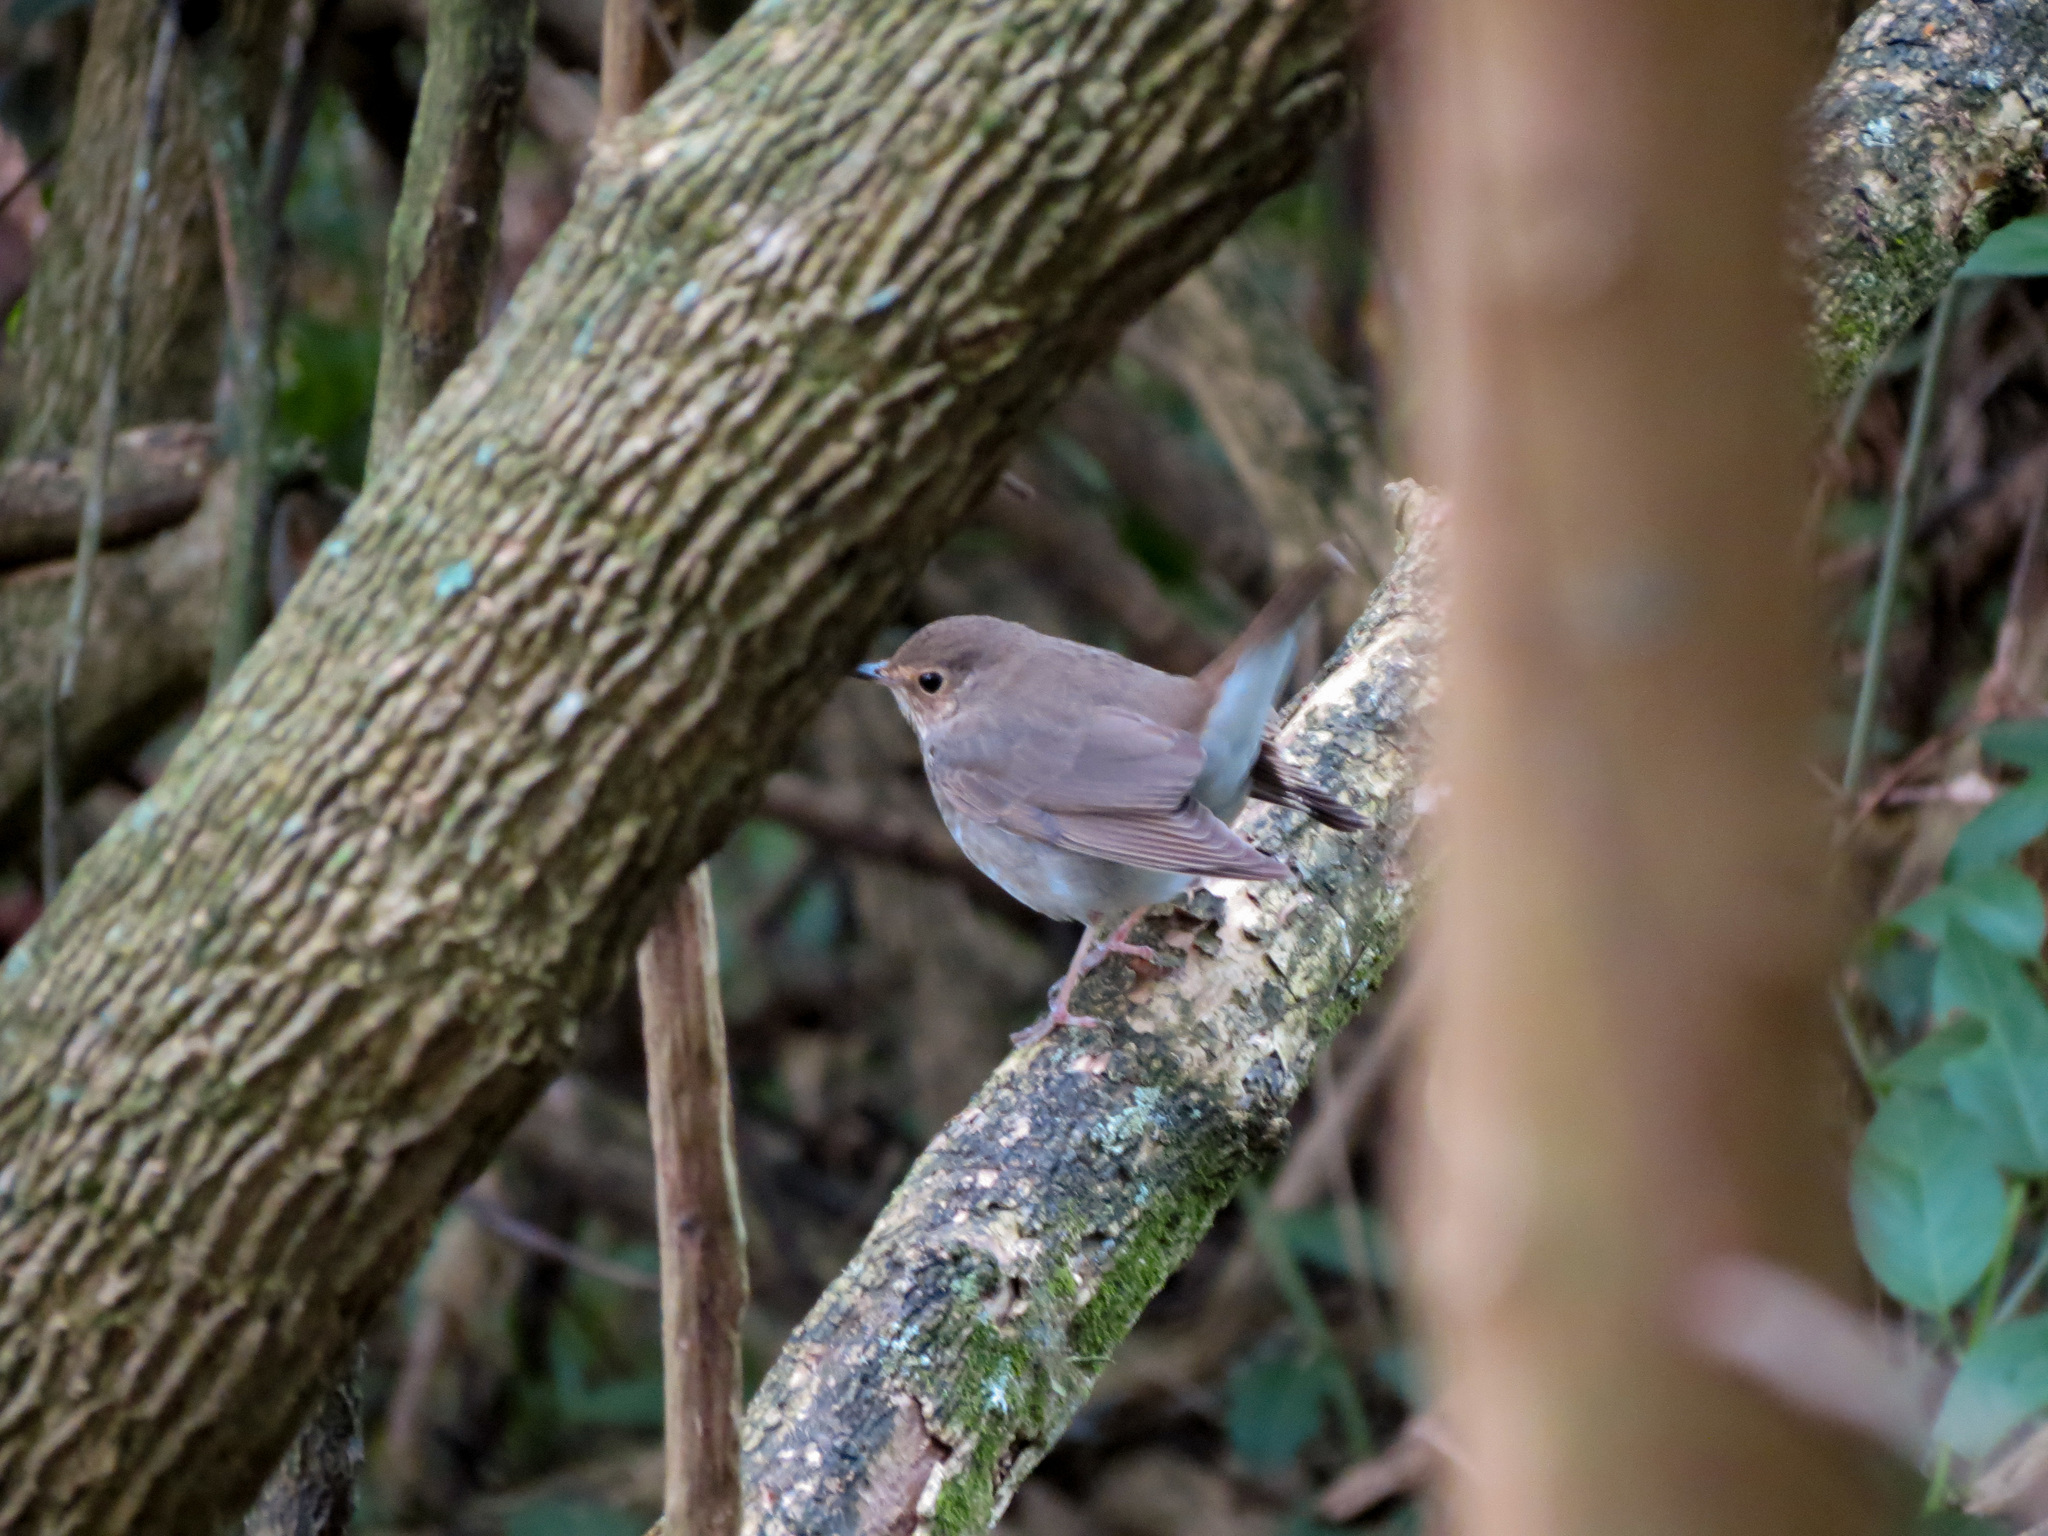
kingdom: Animalia
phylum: Chordata
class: Aves
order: Passeriformes
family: Turdidae
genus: Catharus
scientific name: Catharus ustulatus
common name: Swainson's thrush
